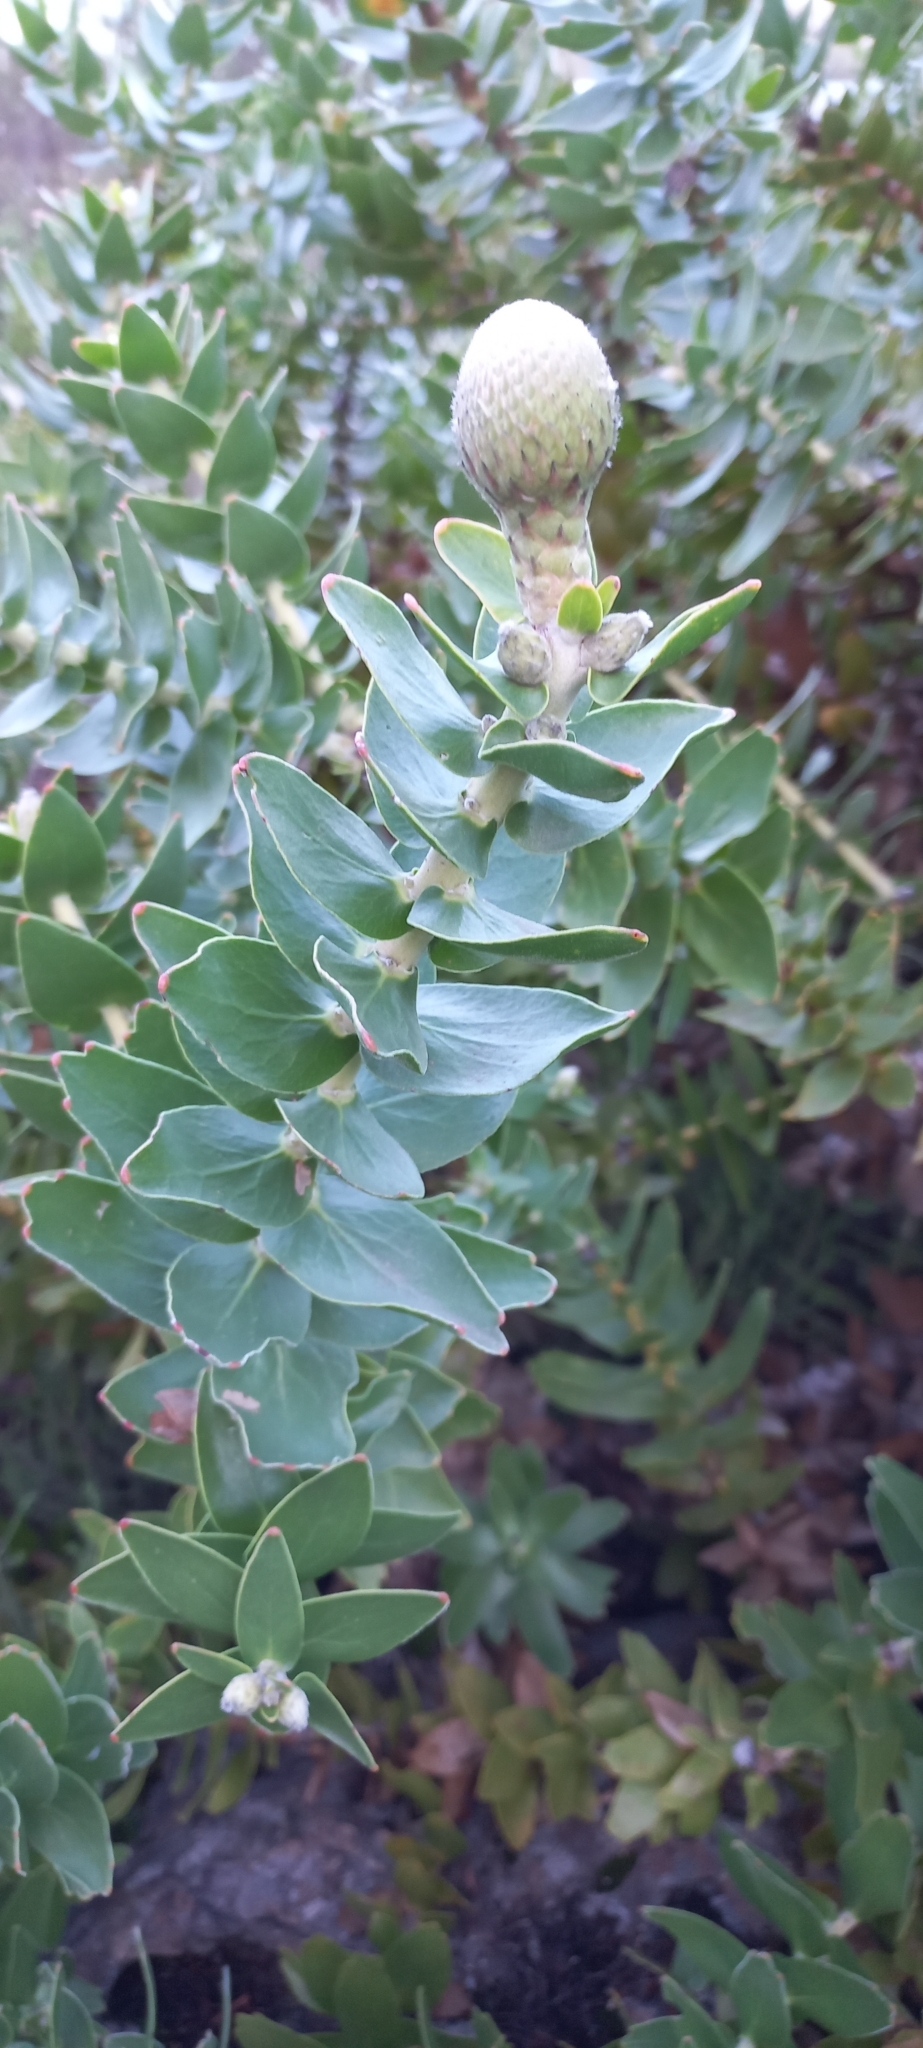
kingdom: Plantae
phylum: Tracheophyta
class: Magnoliopsida
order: Proteales
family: Proteaceae
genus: Leucospermum
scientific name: Leucospermum cordifolium
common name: Red pincushion-protea
